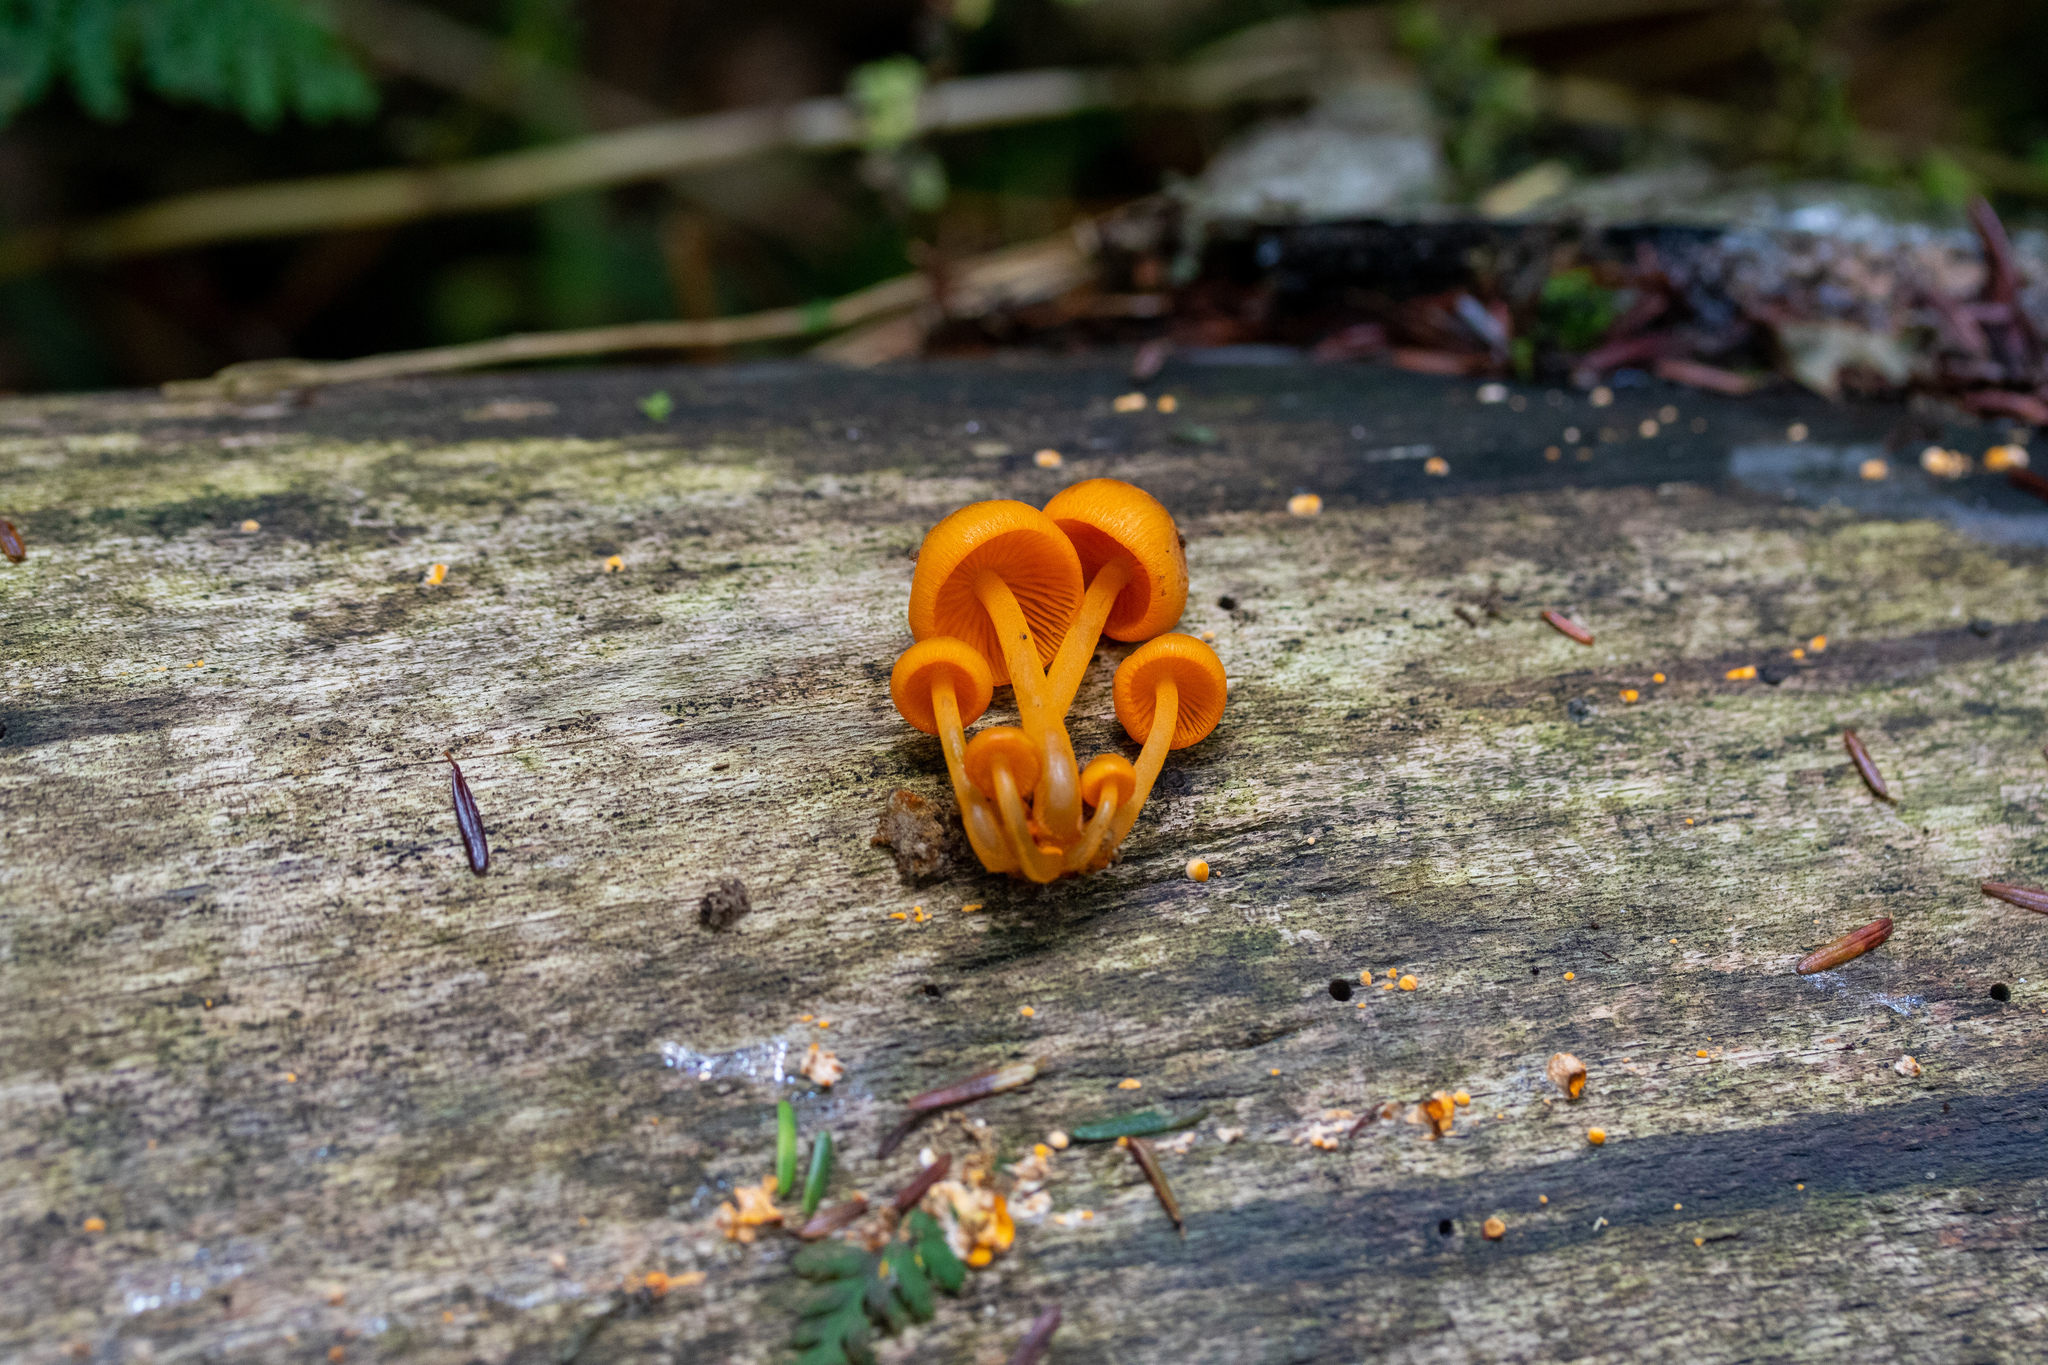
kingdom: Fungi
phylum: Basidiomycota
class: Agaricomycetes
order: Agaricales
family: Mycenaceae
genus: Mycena
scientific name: Mycena leaiana
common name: Orange mycena
